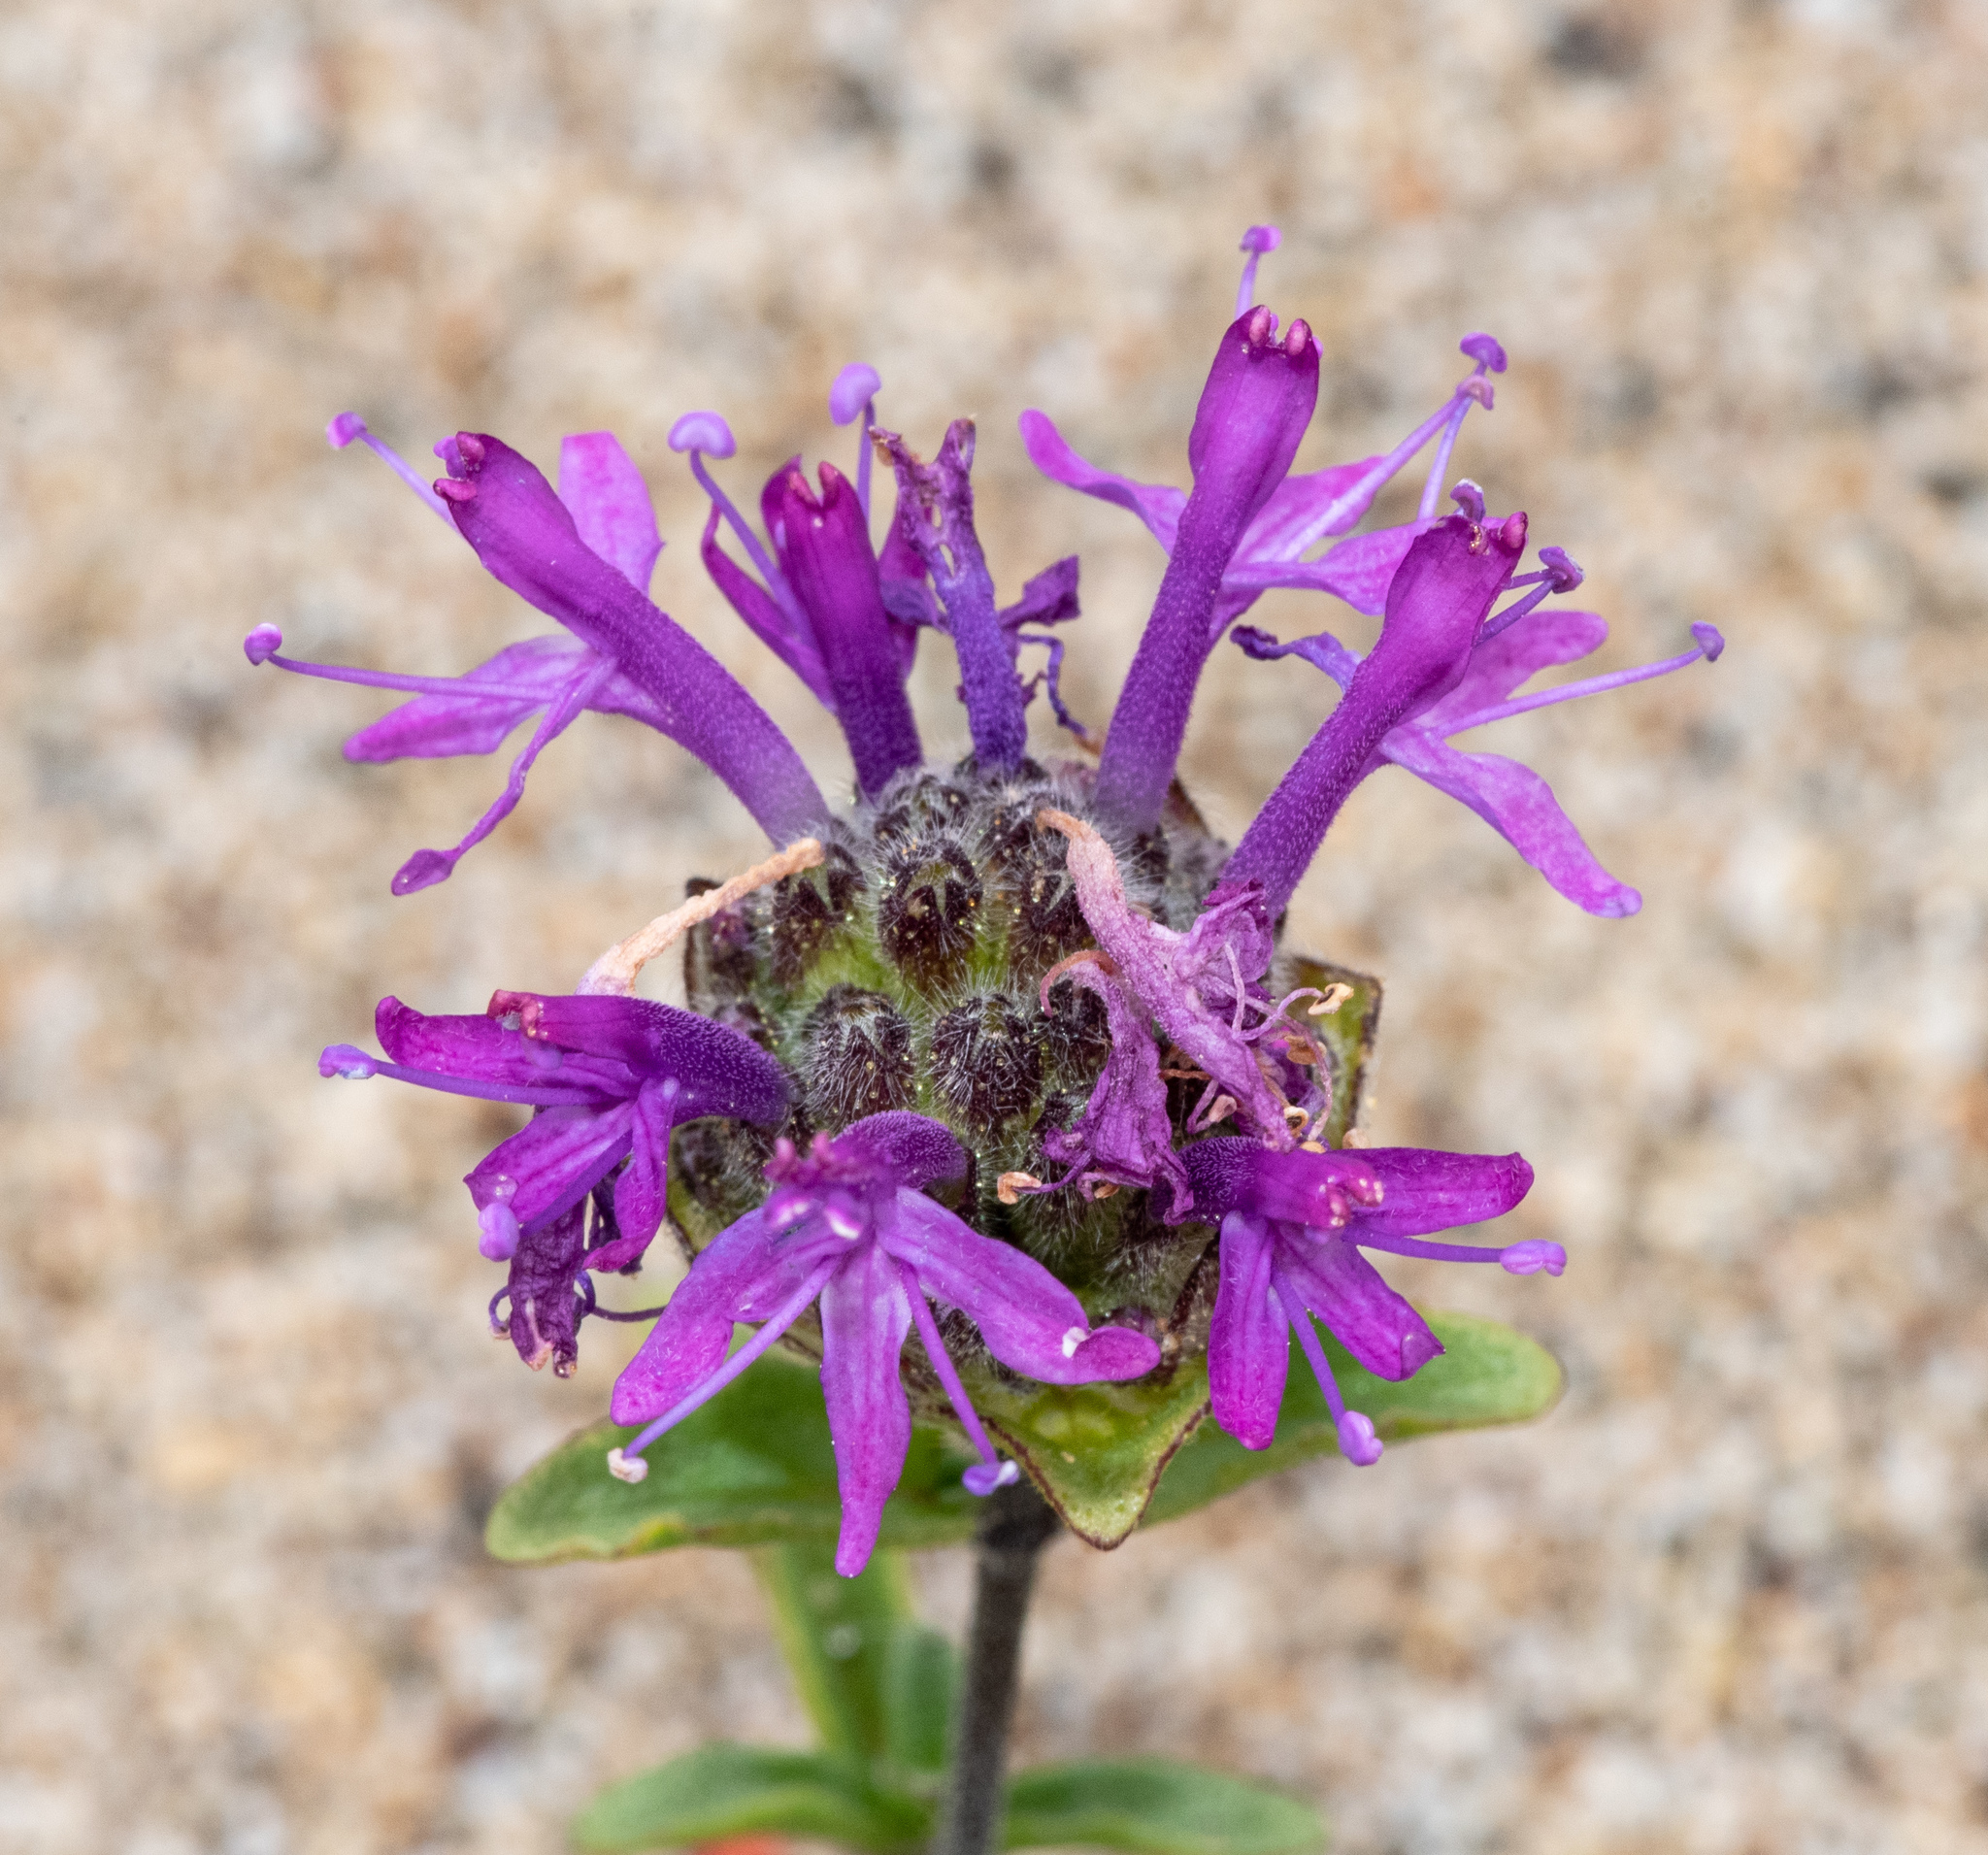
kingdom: Plantae
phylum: Tracheophyta
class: Magnoliopsida
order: Lamiales
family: Lamiaceae
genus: Monardella
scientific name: Monardella sinuata
